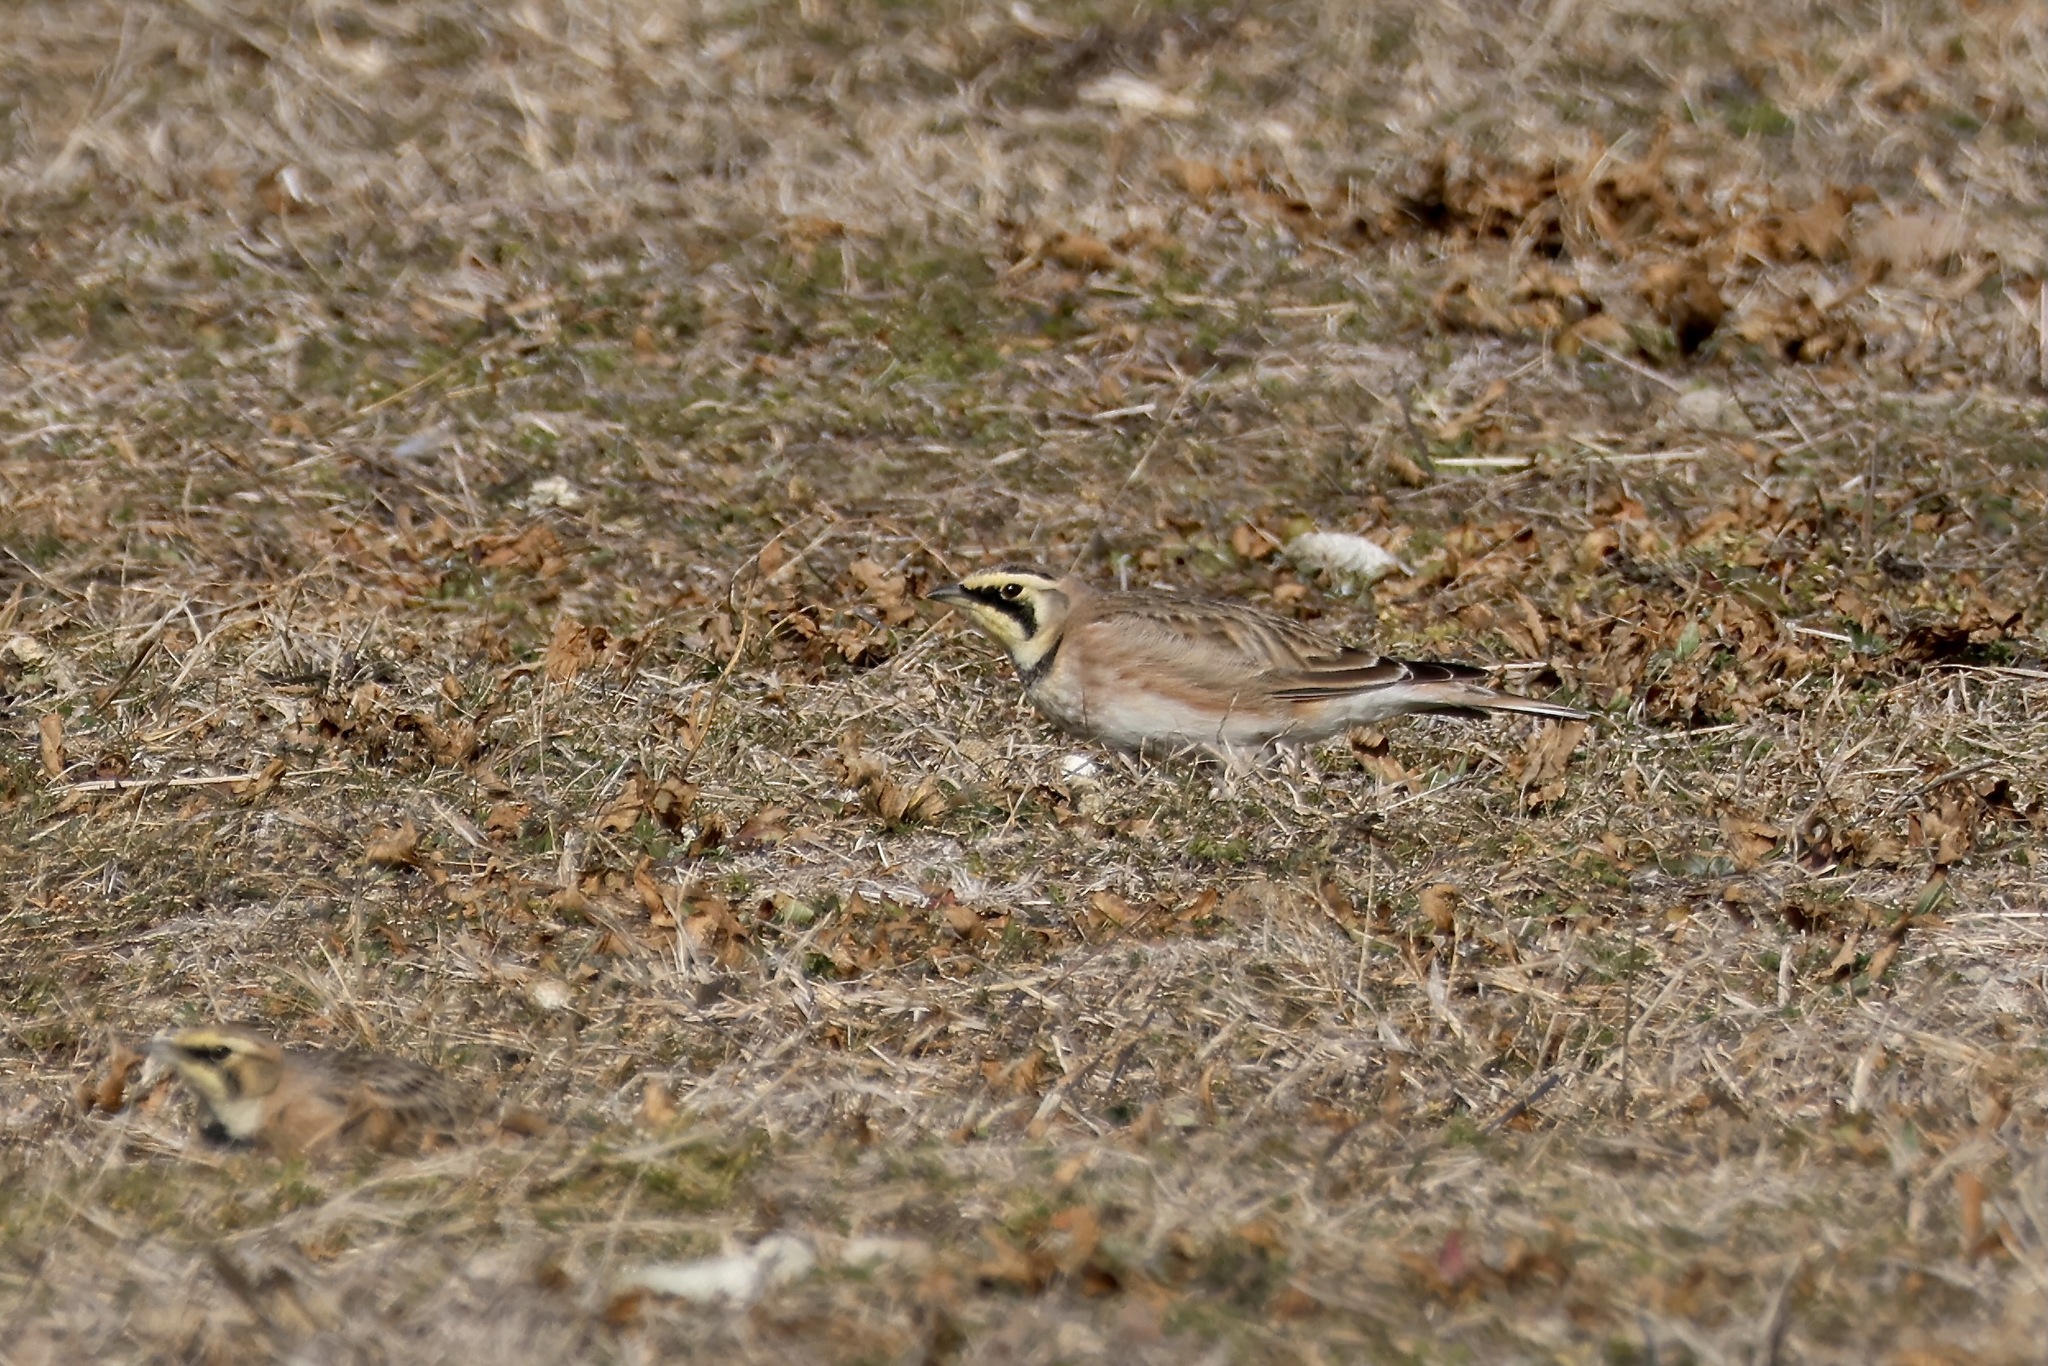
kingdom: Animalia
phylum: Chordata
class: Aves
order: Passeriformes
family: Alaudidae
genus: Eremophila
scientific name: Eremophila alpestris
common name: Horned lark
